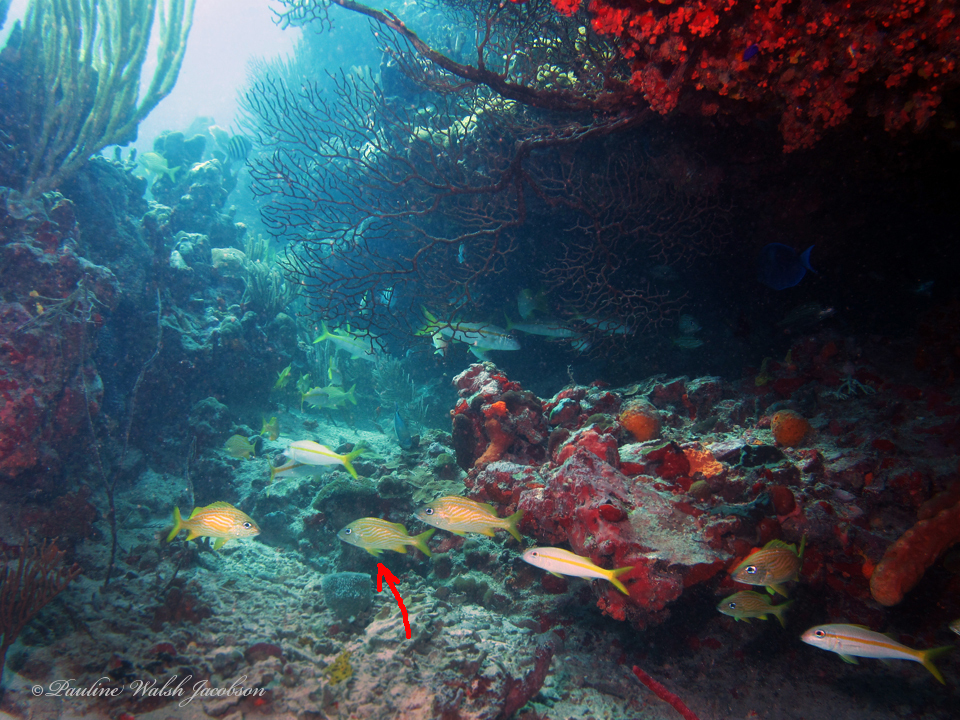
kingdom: Animalia
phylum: Chordata
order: Perciformes
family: Haemulidae
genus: Haemulon
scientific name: Haemulon flavolineatum
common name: French grunt
